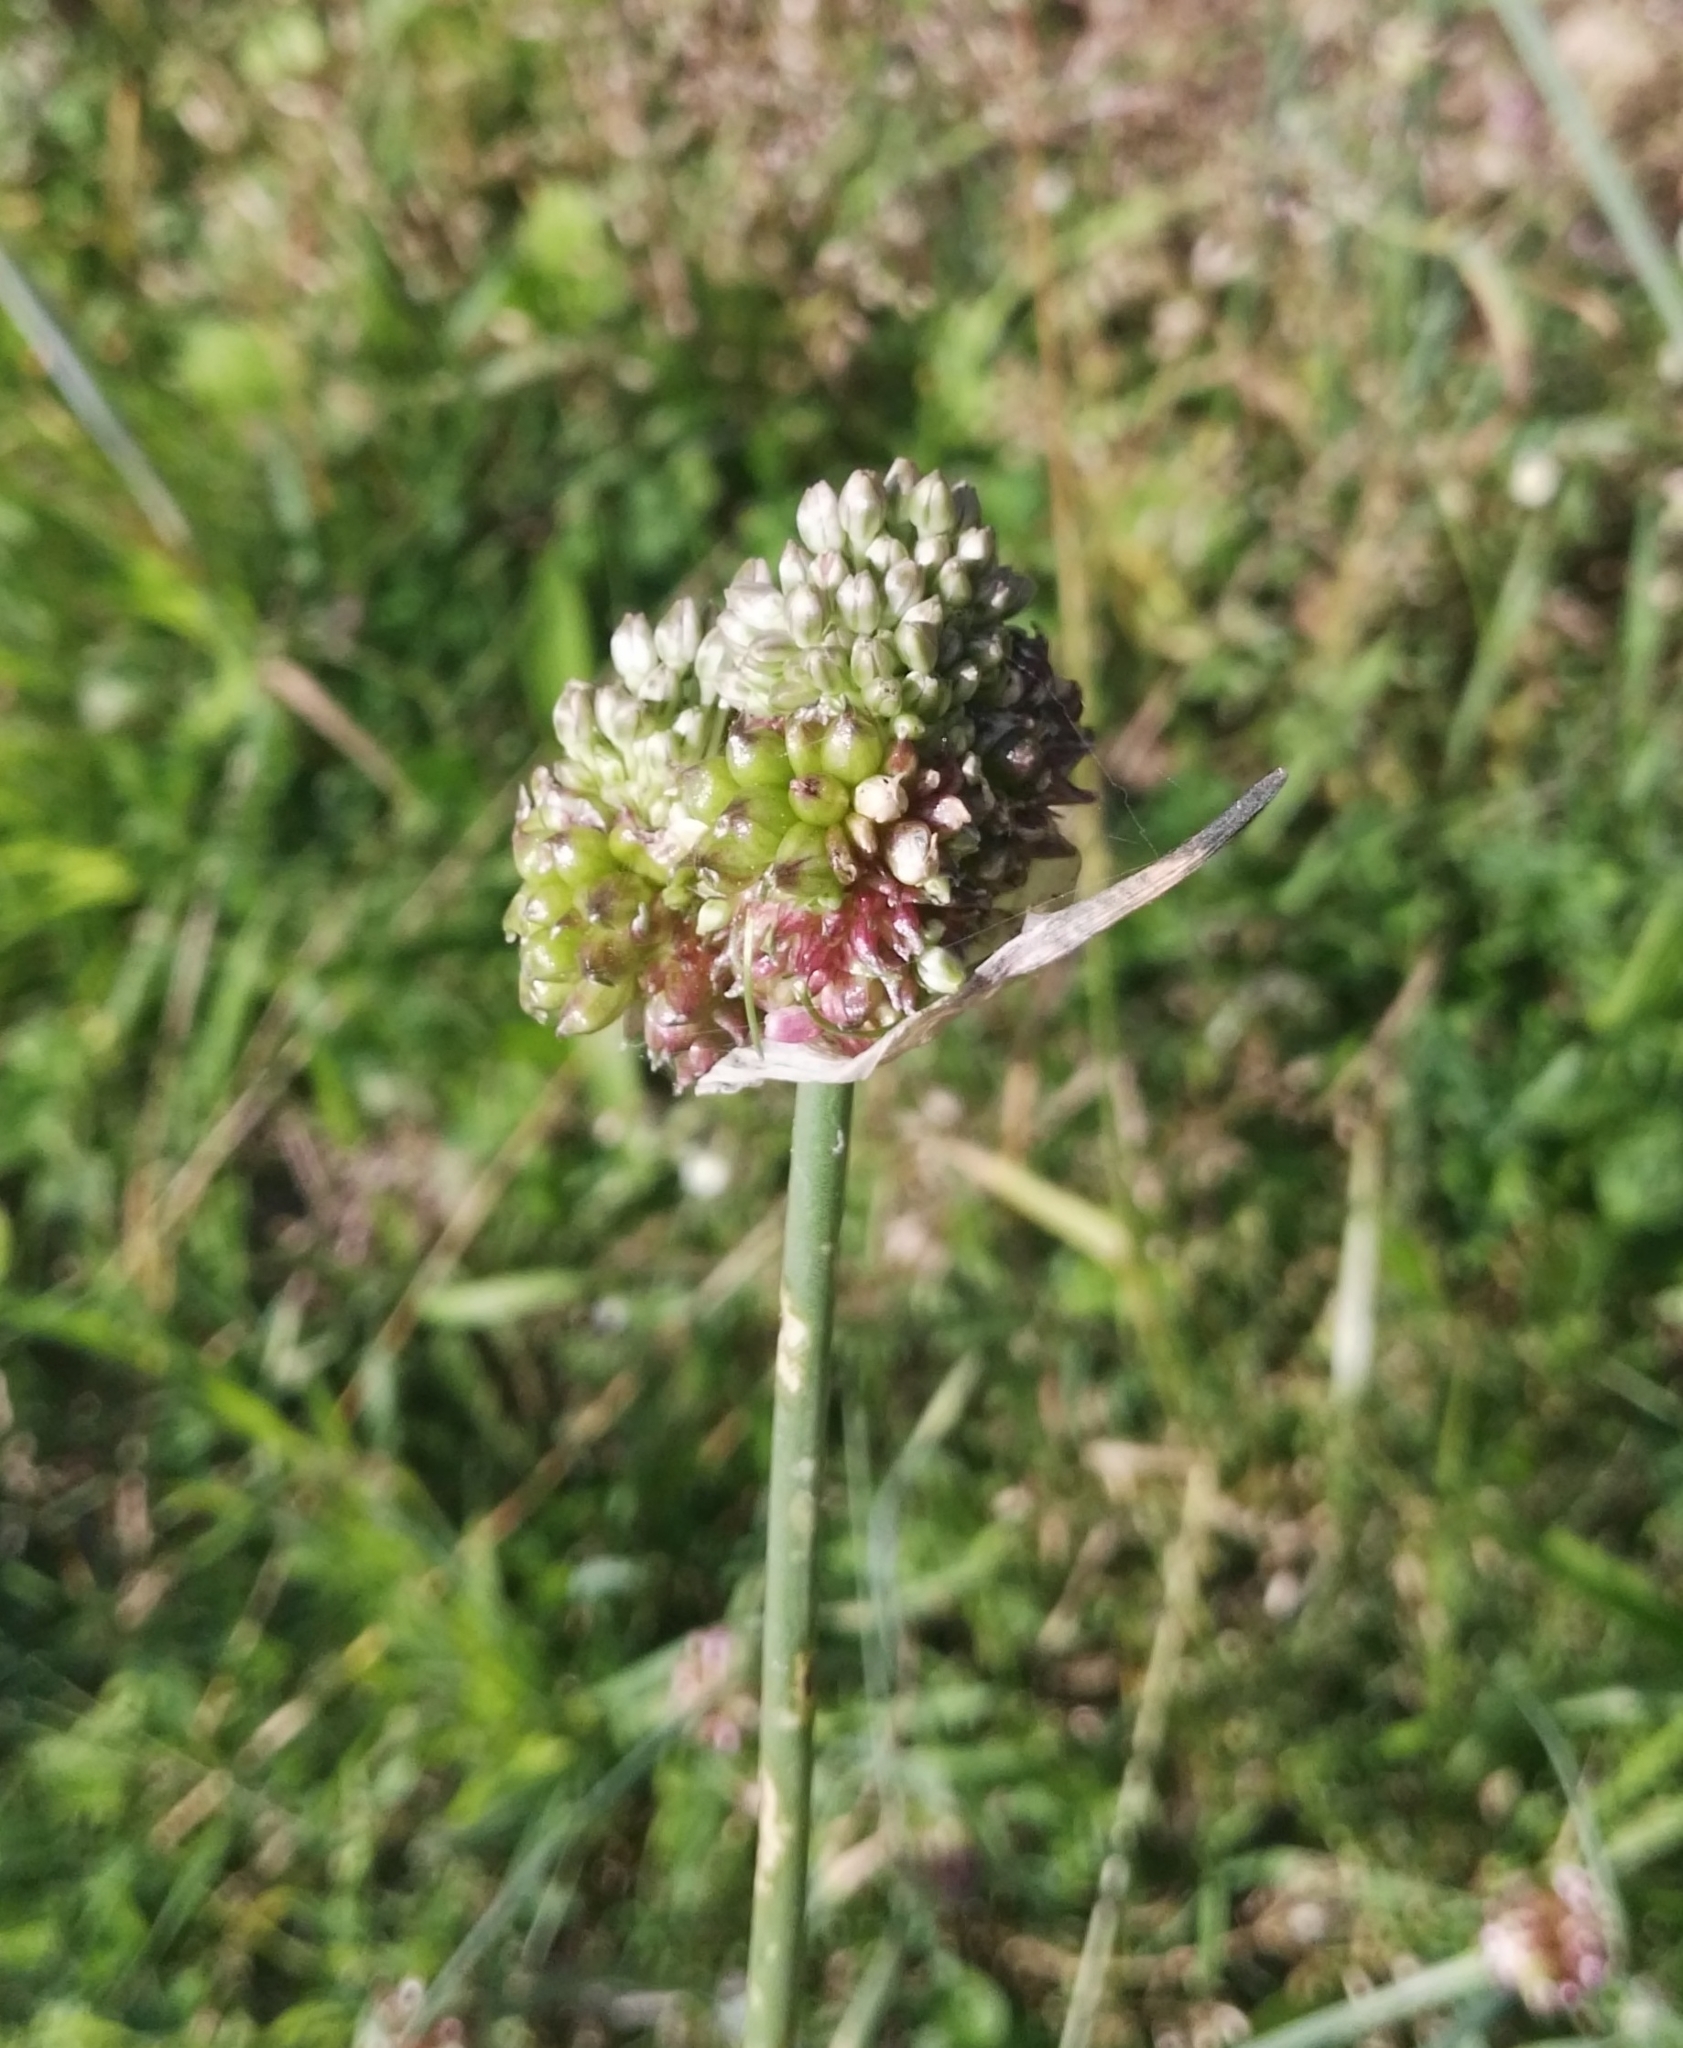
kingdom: Plantae
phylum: Tracheophyta
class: Liliopsida
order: Asparagales
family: Amaryllidaceae
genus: Allium
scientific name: Allium vineale
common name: Crow garlic
